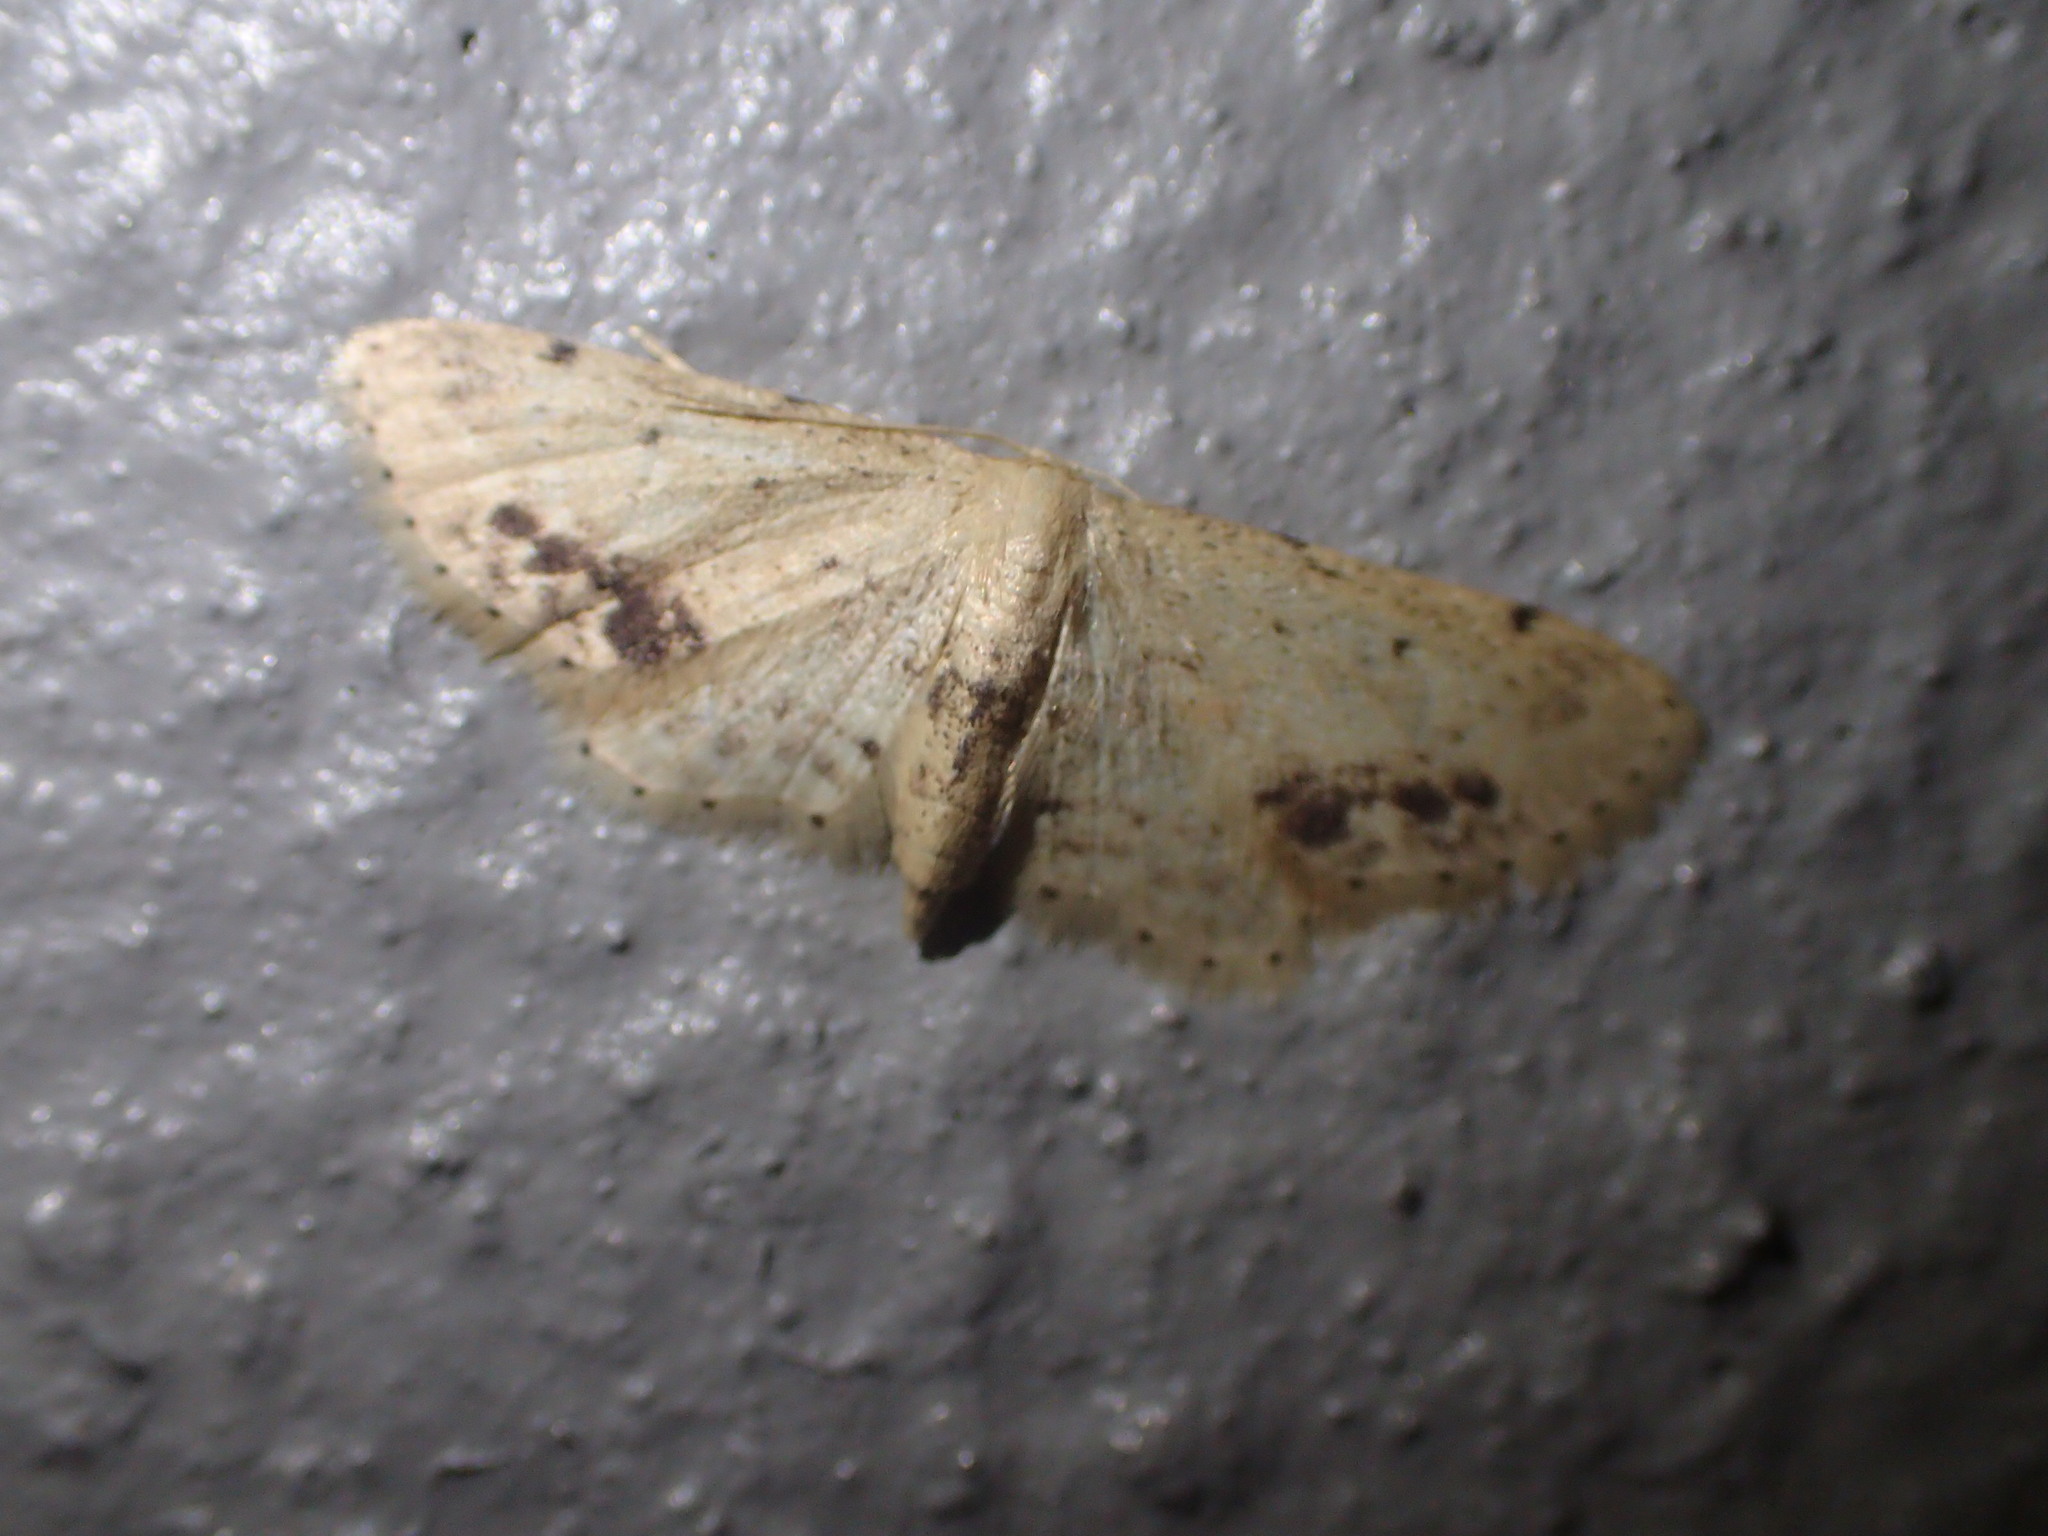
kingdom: Animalia
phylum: Arthropoda
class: Insecta
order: Lepidoptera
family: Geometridae
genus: Idaea
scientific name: Idaea dimidiata
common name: Single-dotted wave
